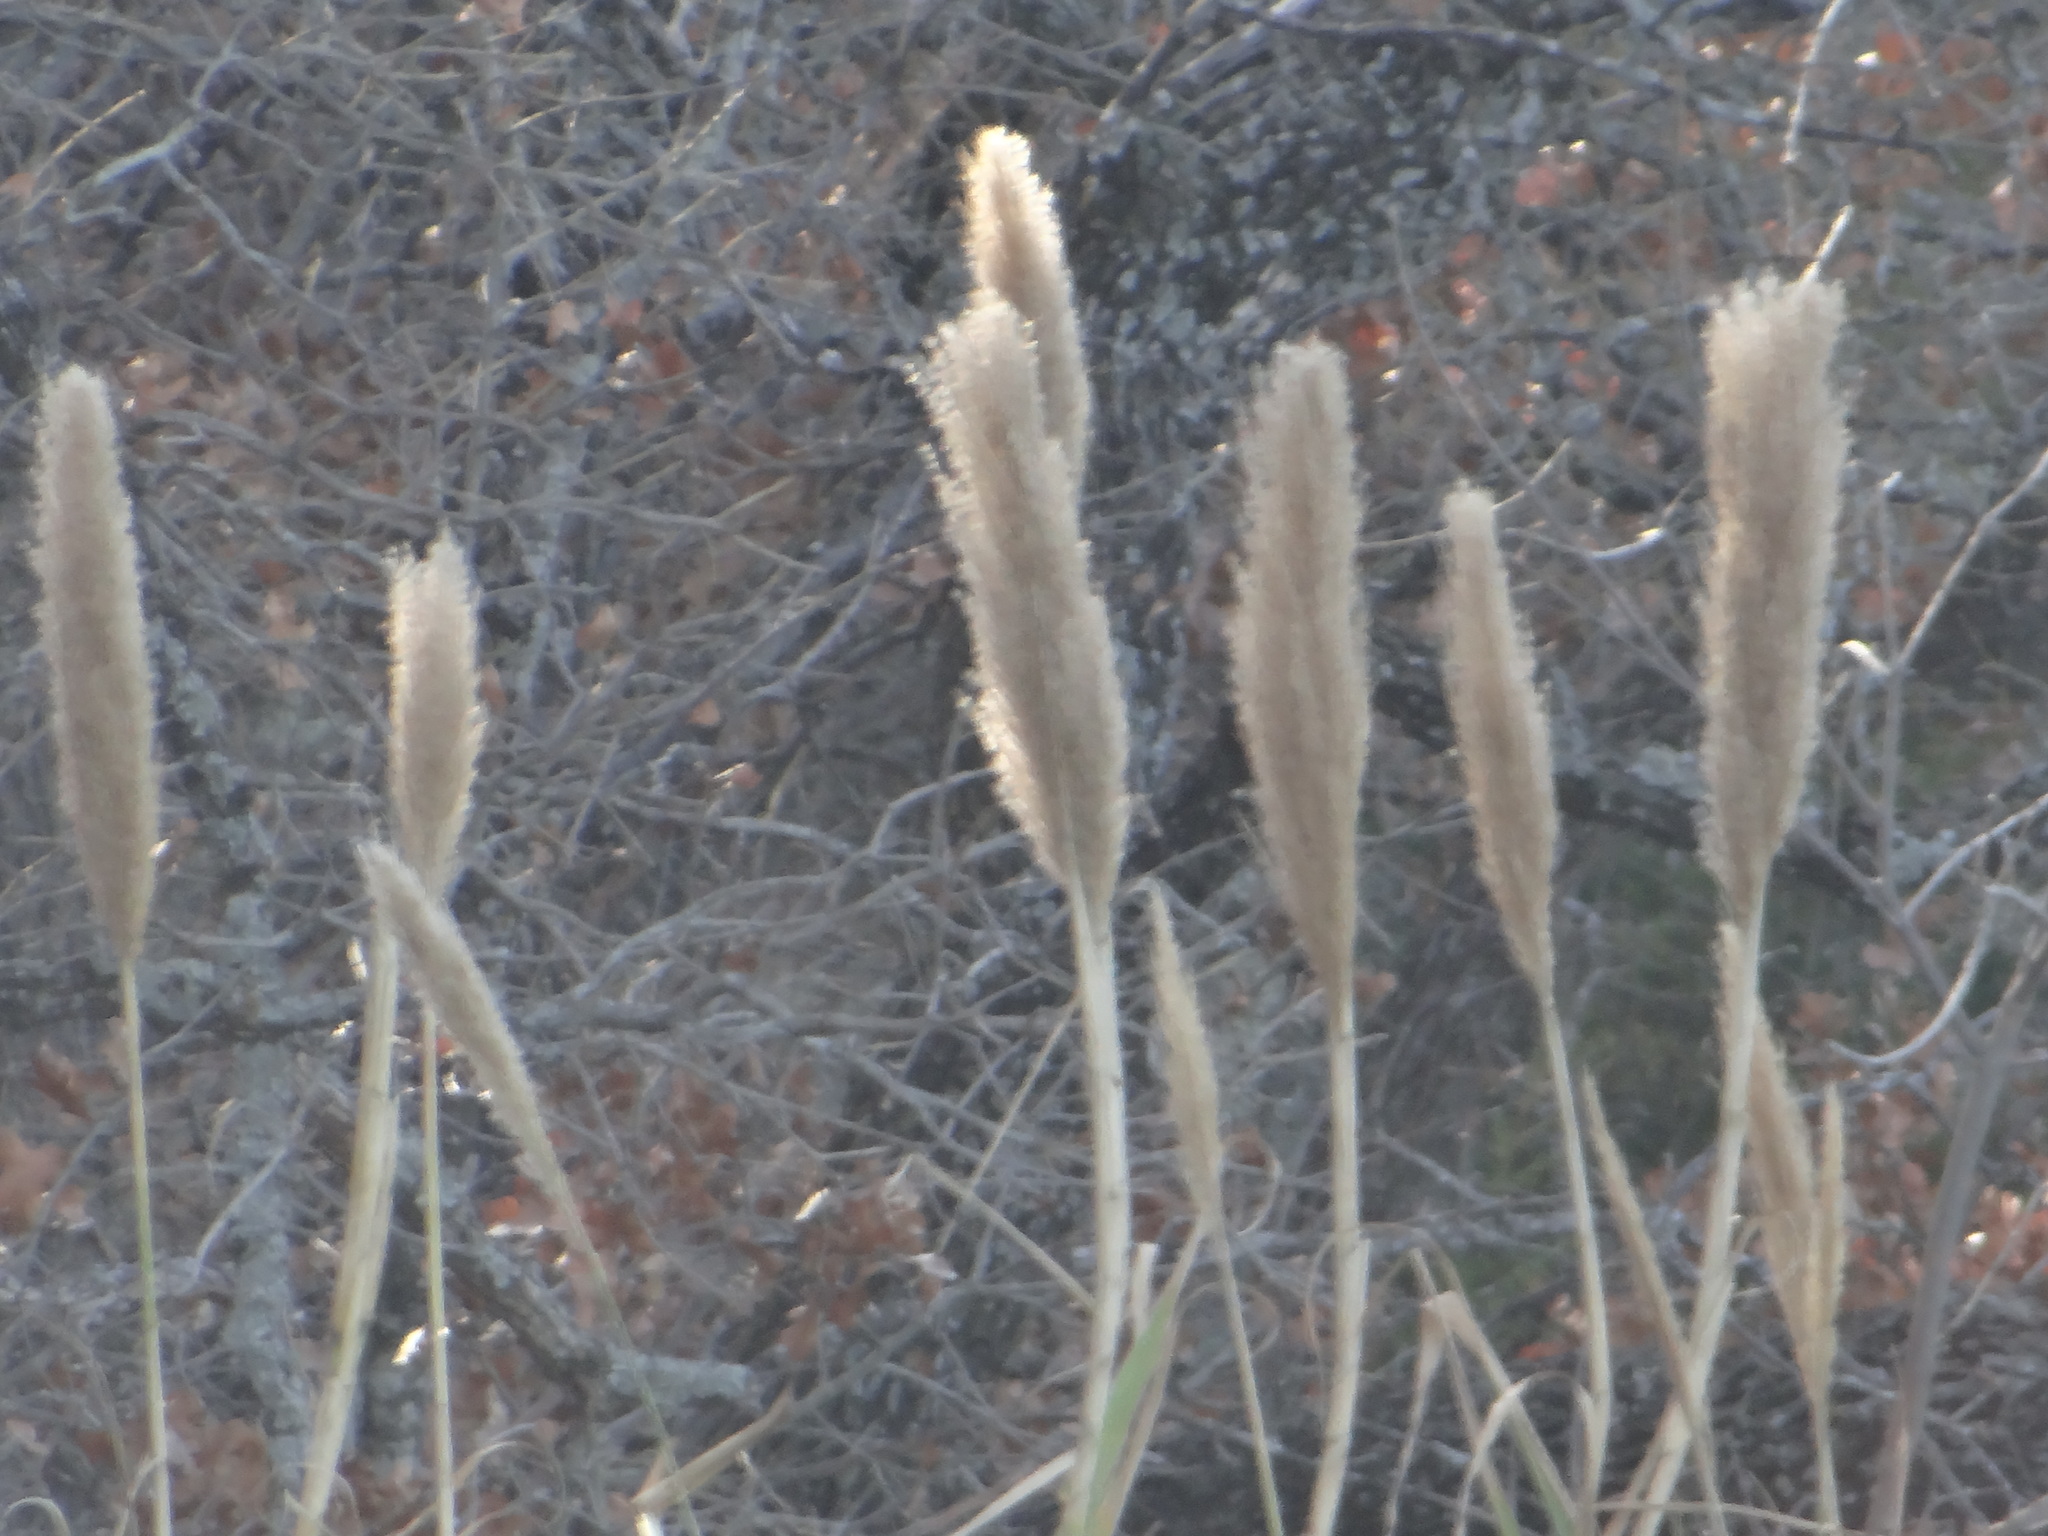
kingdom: Plantae
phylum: Tracheophyta
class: Liliopsida
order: Poales
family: Poaceae
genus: Arundo
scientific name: Arundo donax
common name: Giant reed
